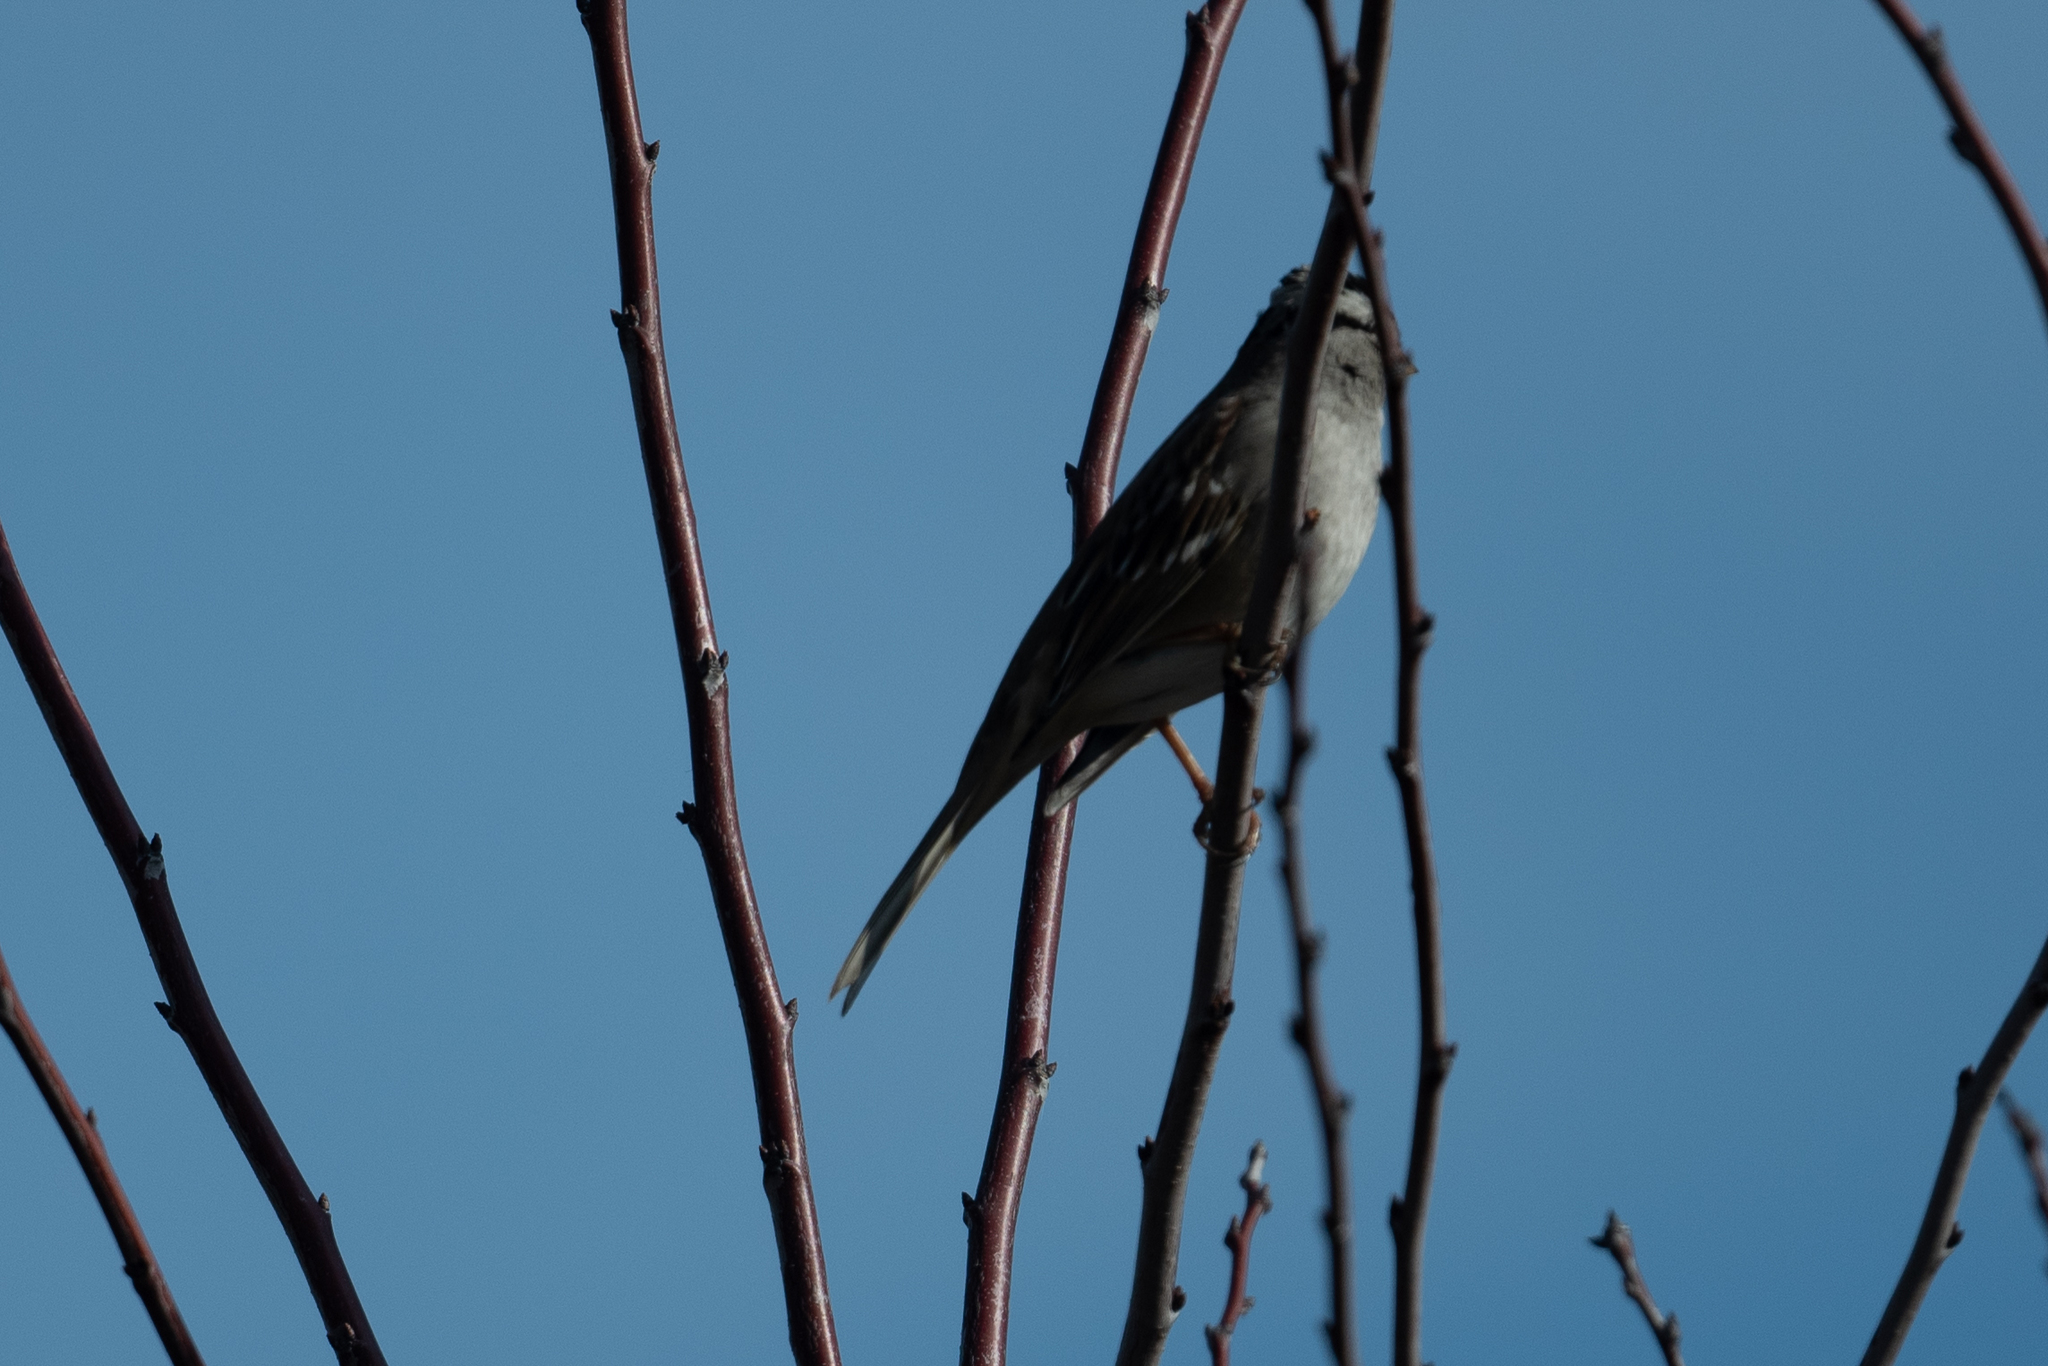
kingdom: Animalia
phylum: Chordata
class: Aves
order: Passeriformes
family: Passerellidae
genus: Zonotrichia
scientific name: Zonotrichia leucophrys
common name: White-crowned sparrow
